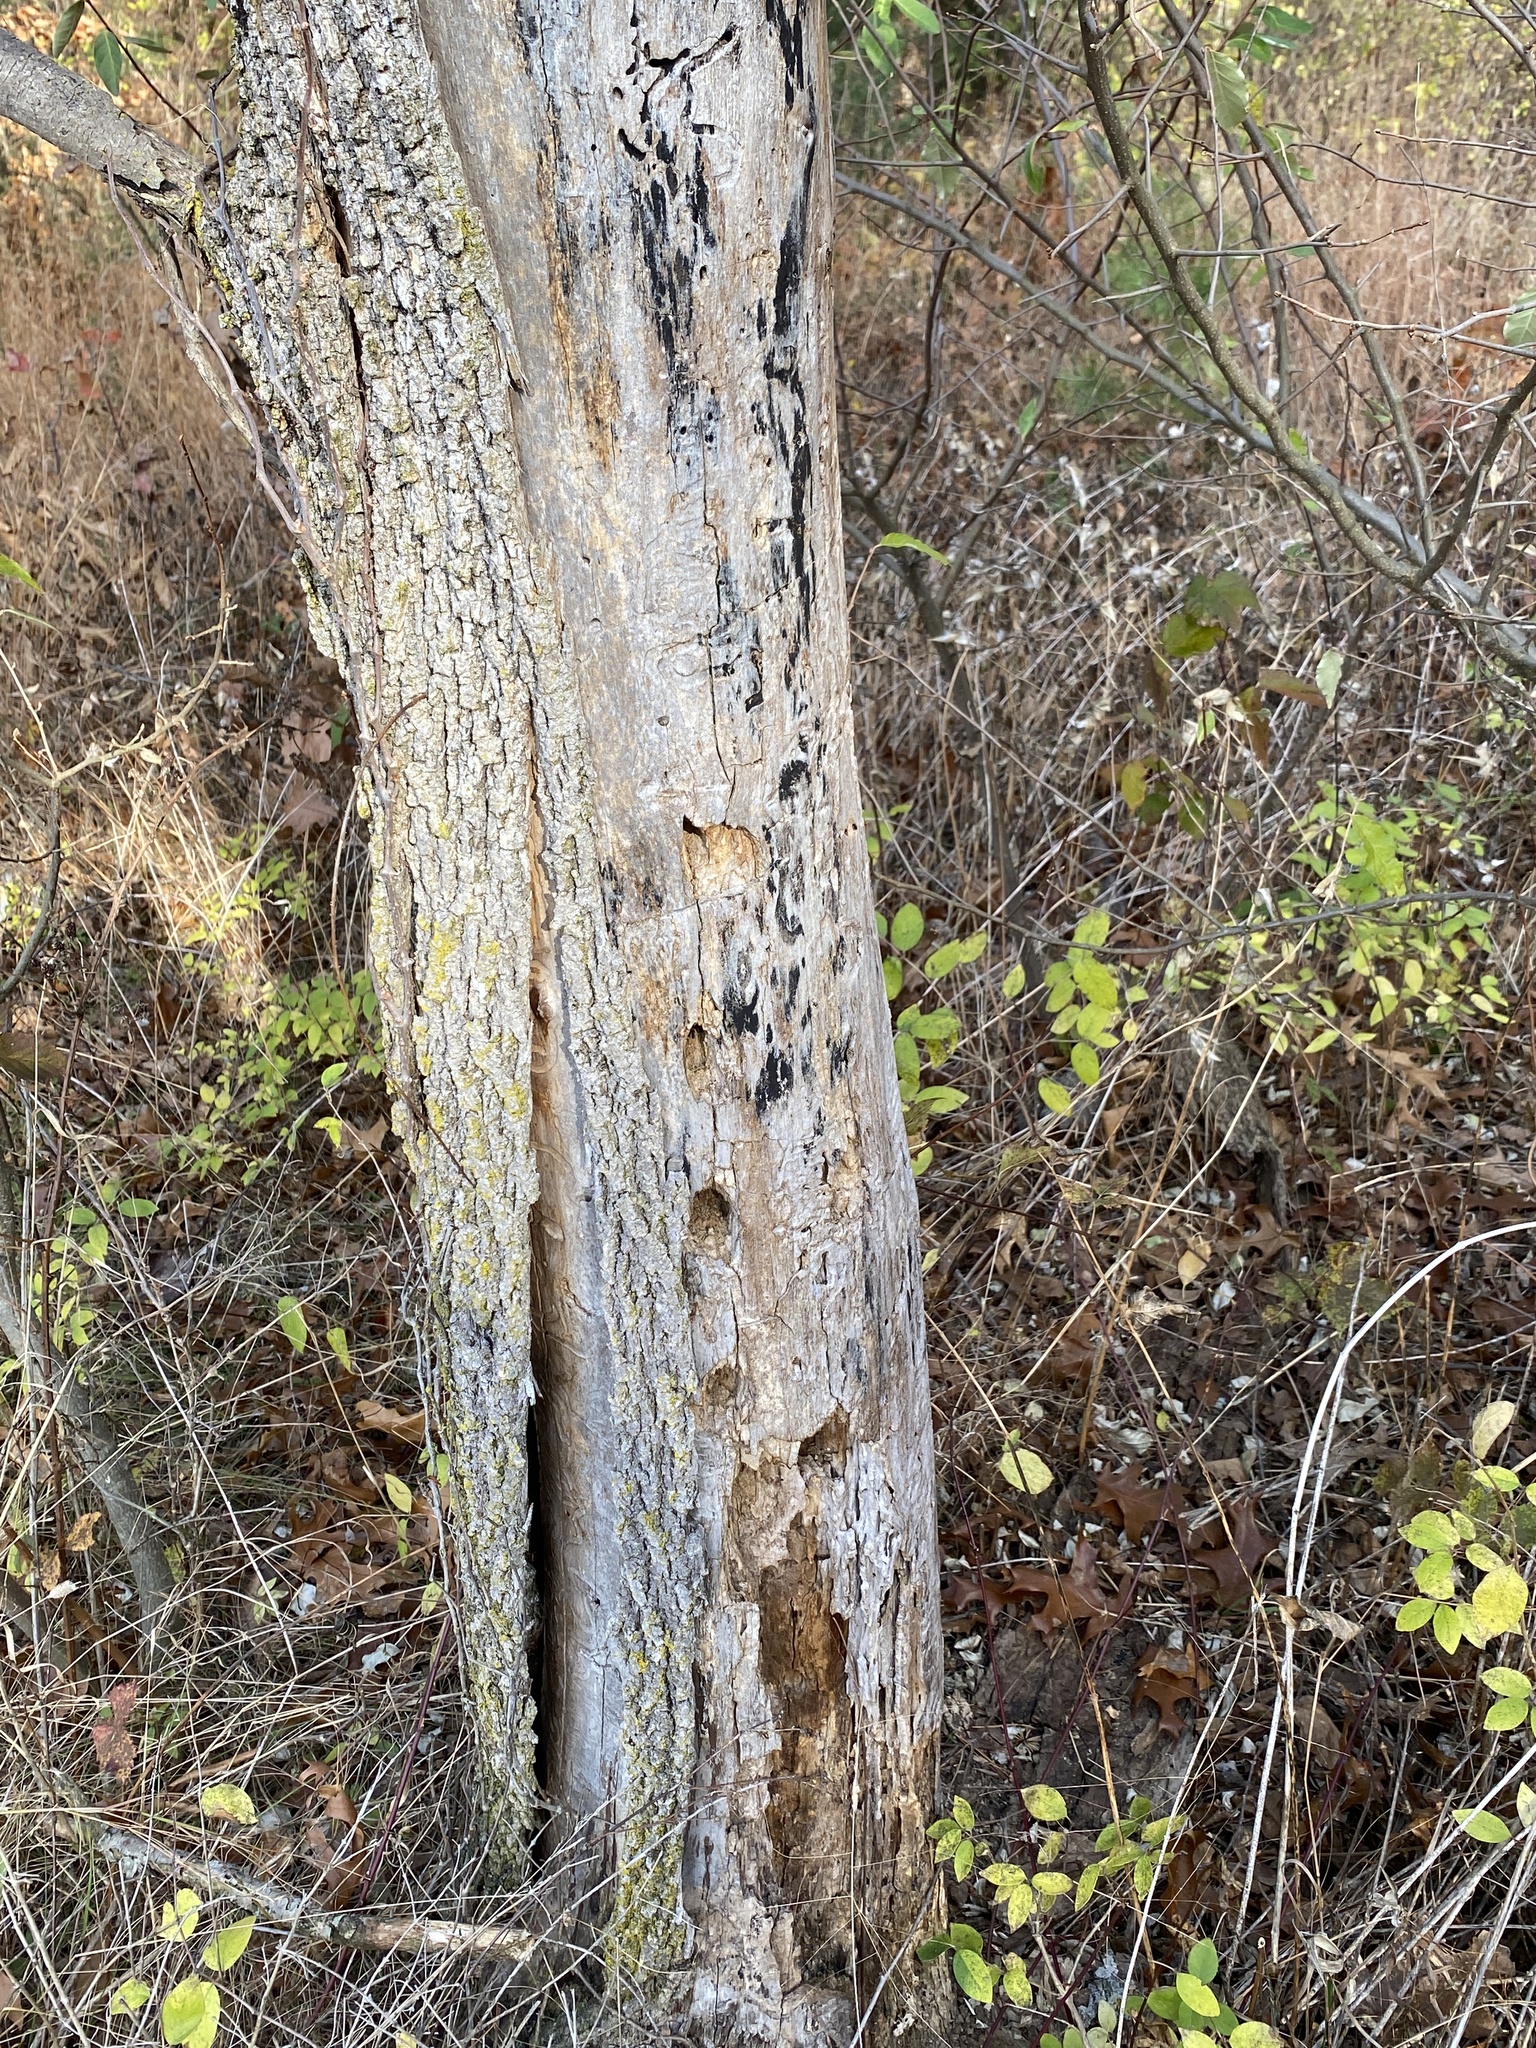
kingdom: Animalia
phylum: Chordata
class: Aves
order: Piciformes
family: Picidae
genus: Dryocopus
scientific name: Dryocopus pileatus
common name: Pileated woodpecker
